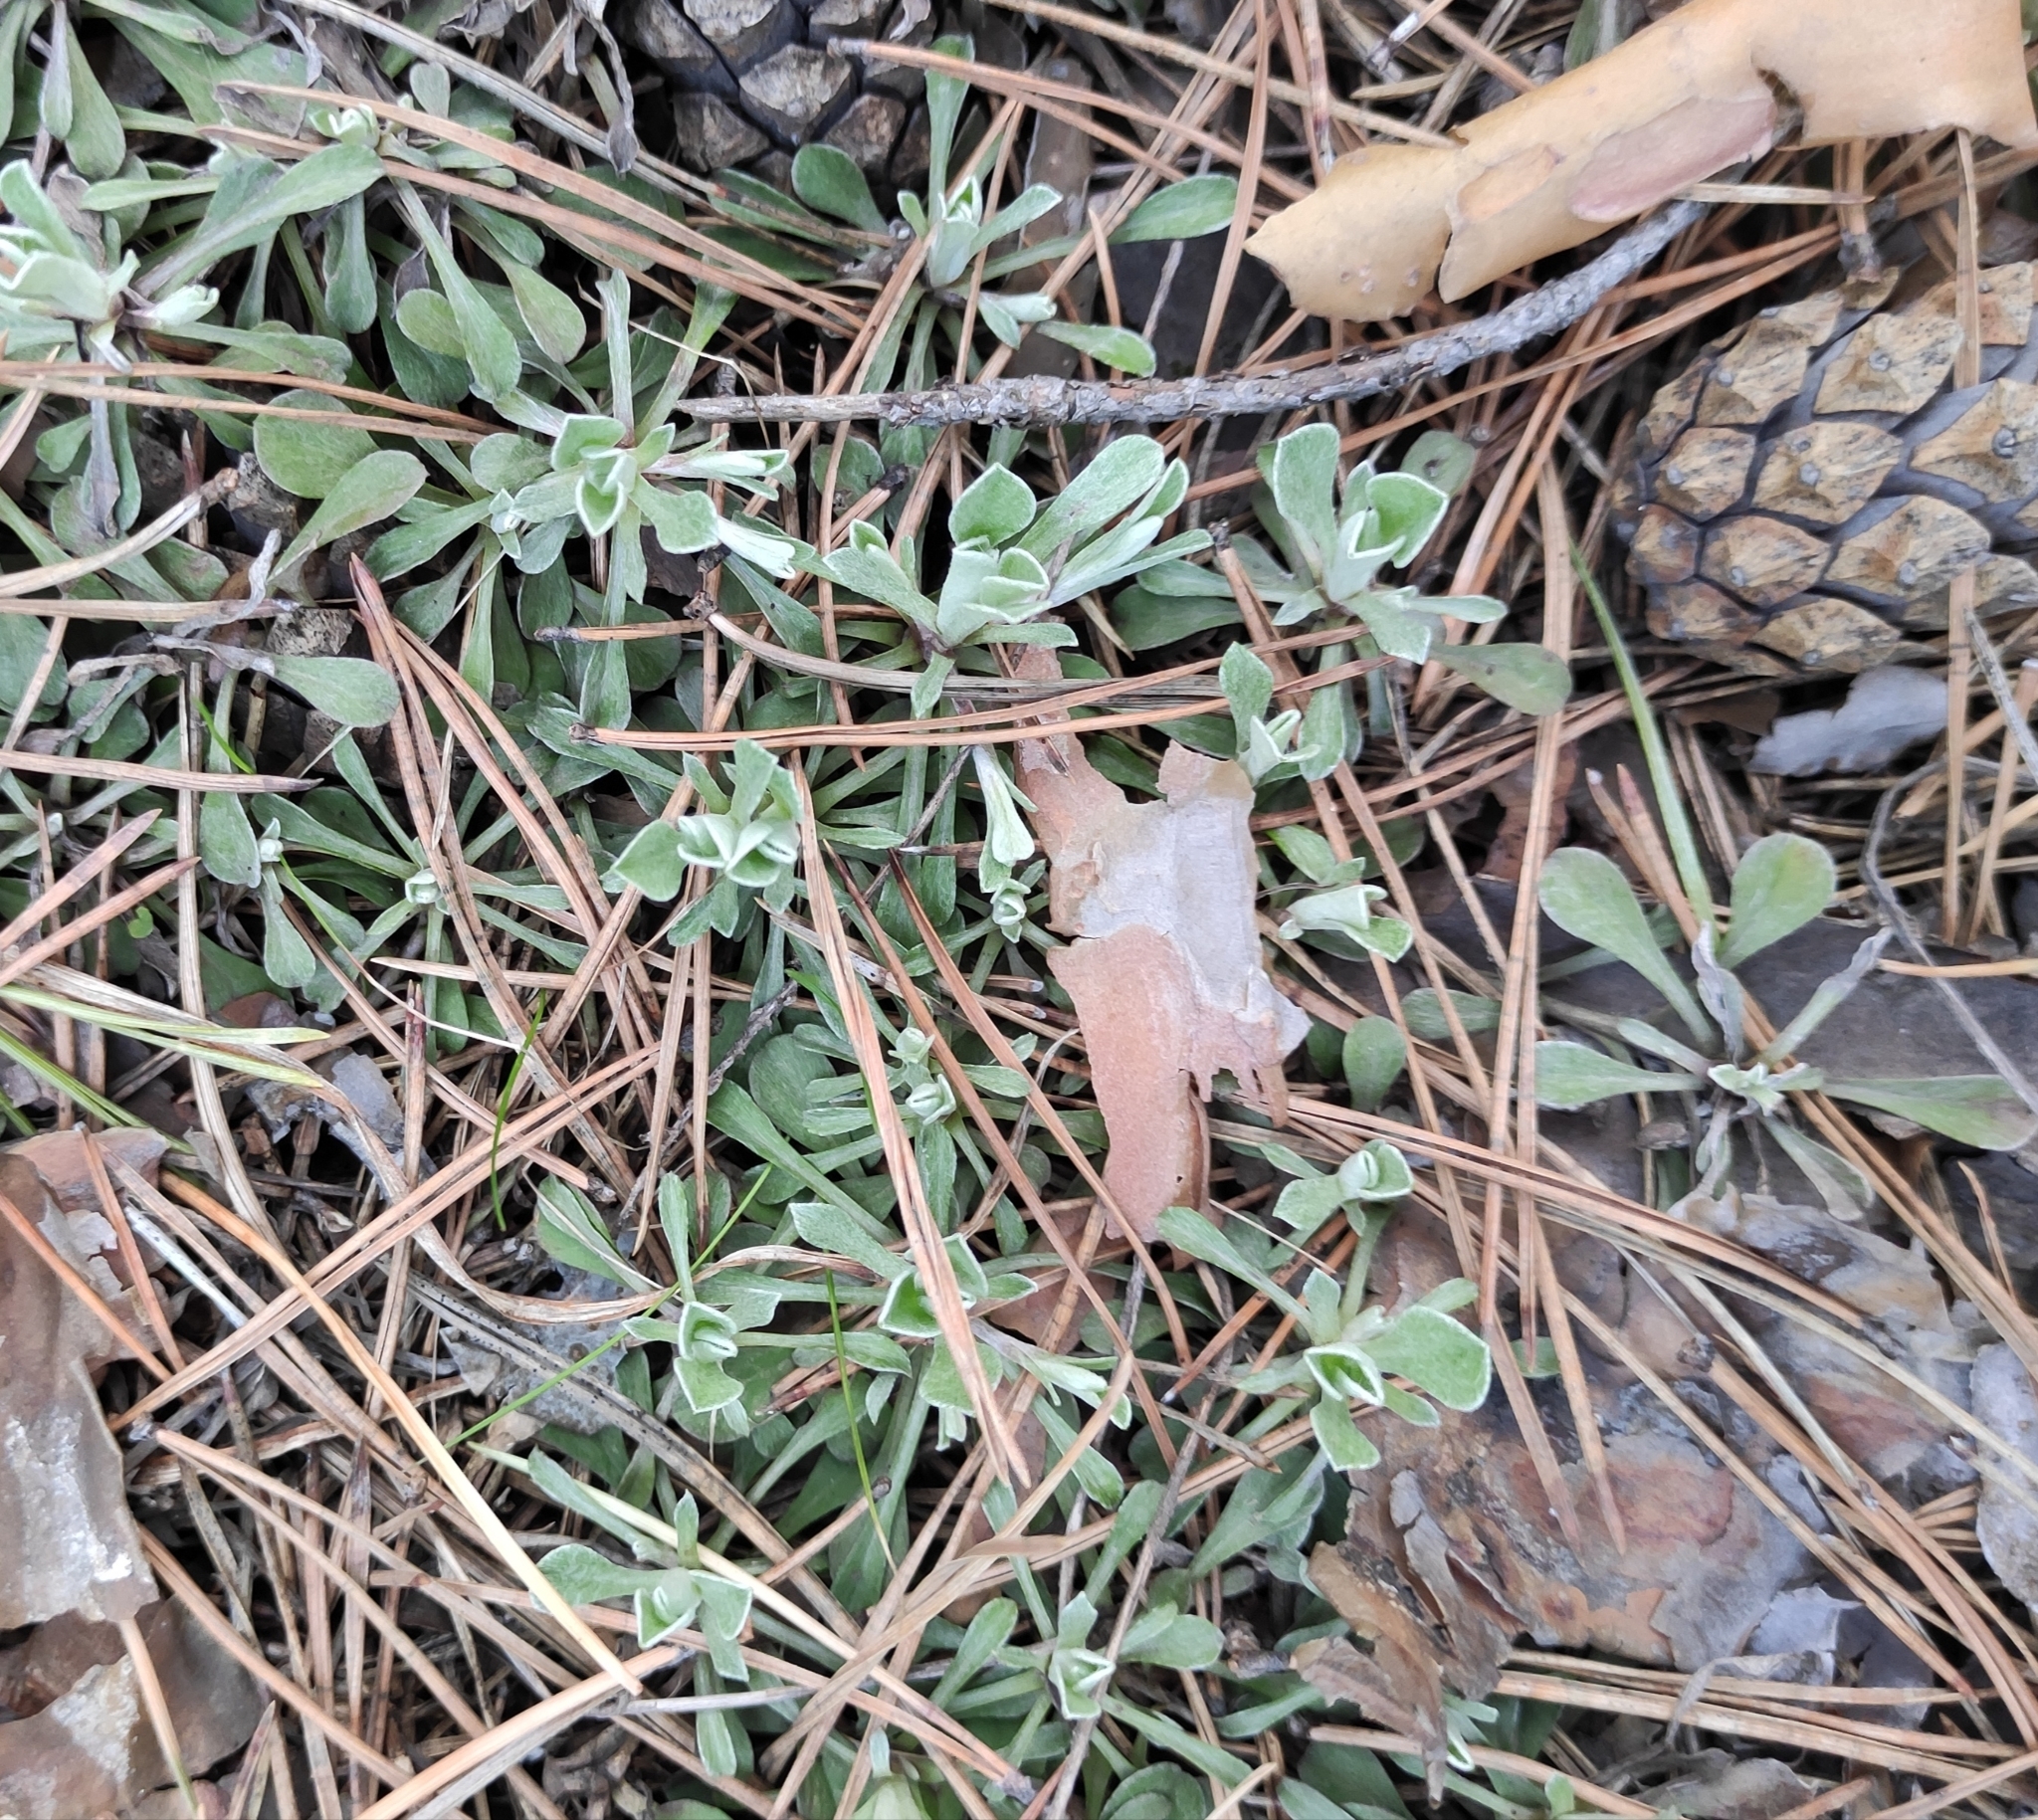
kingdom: Plantae
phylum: Tracheophyta
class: Magnoliopsida
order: Asterales
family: Asteraceae
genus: Antennaria
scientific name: Antennaria dioica
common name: Mountain everlasting
